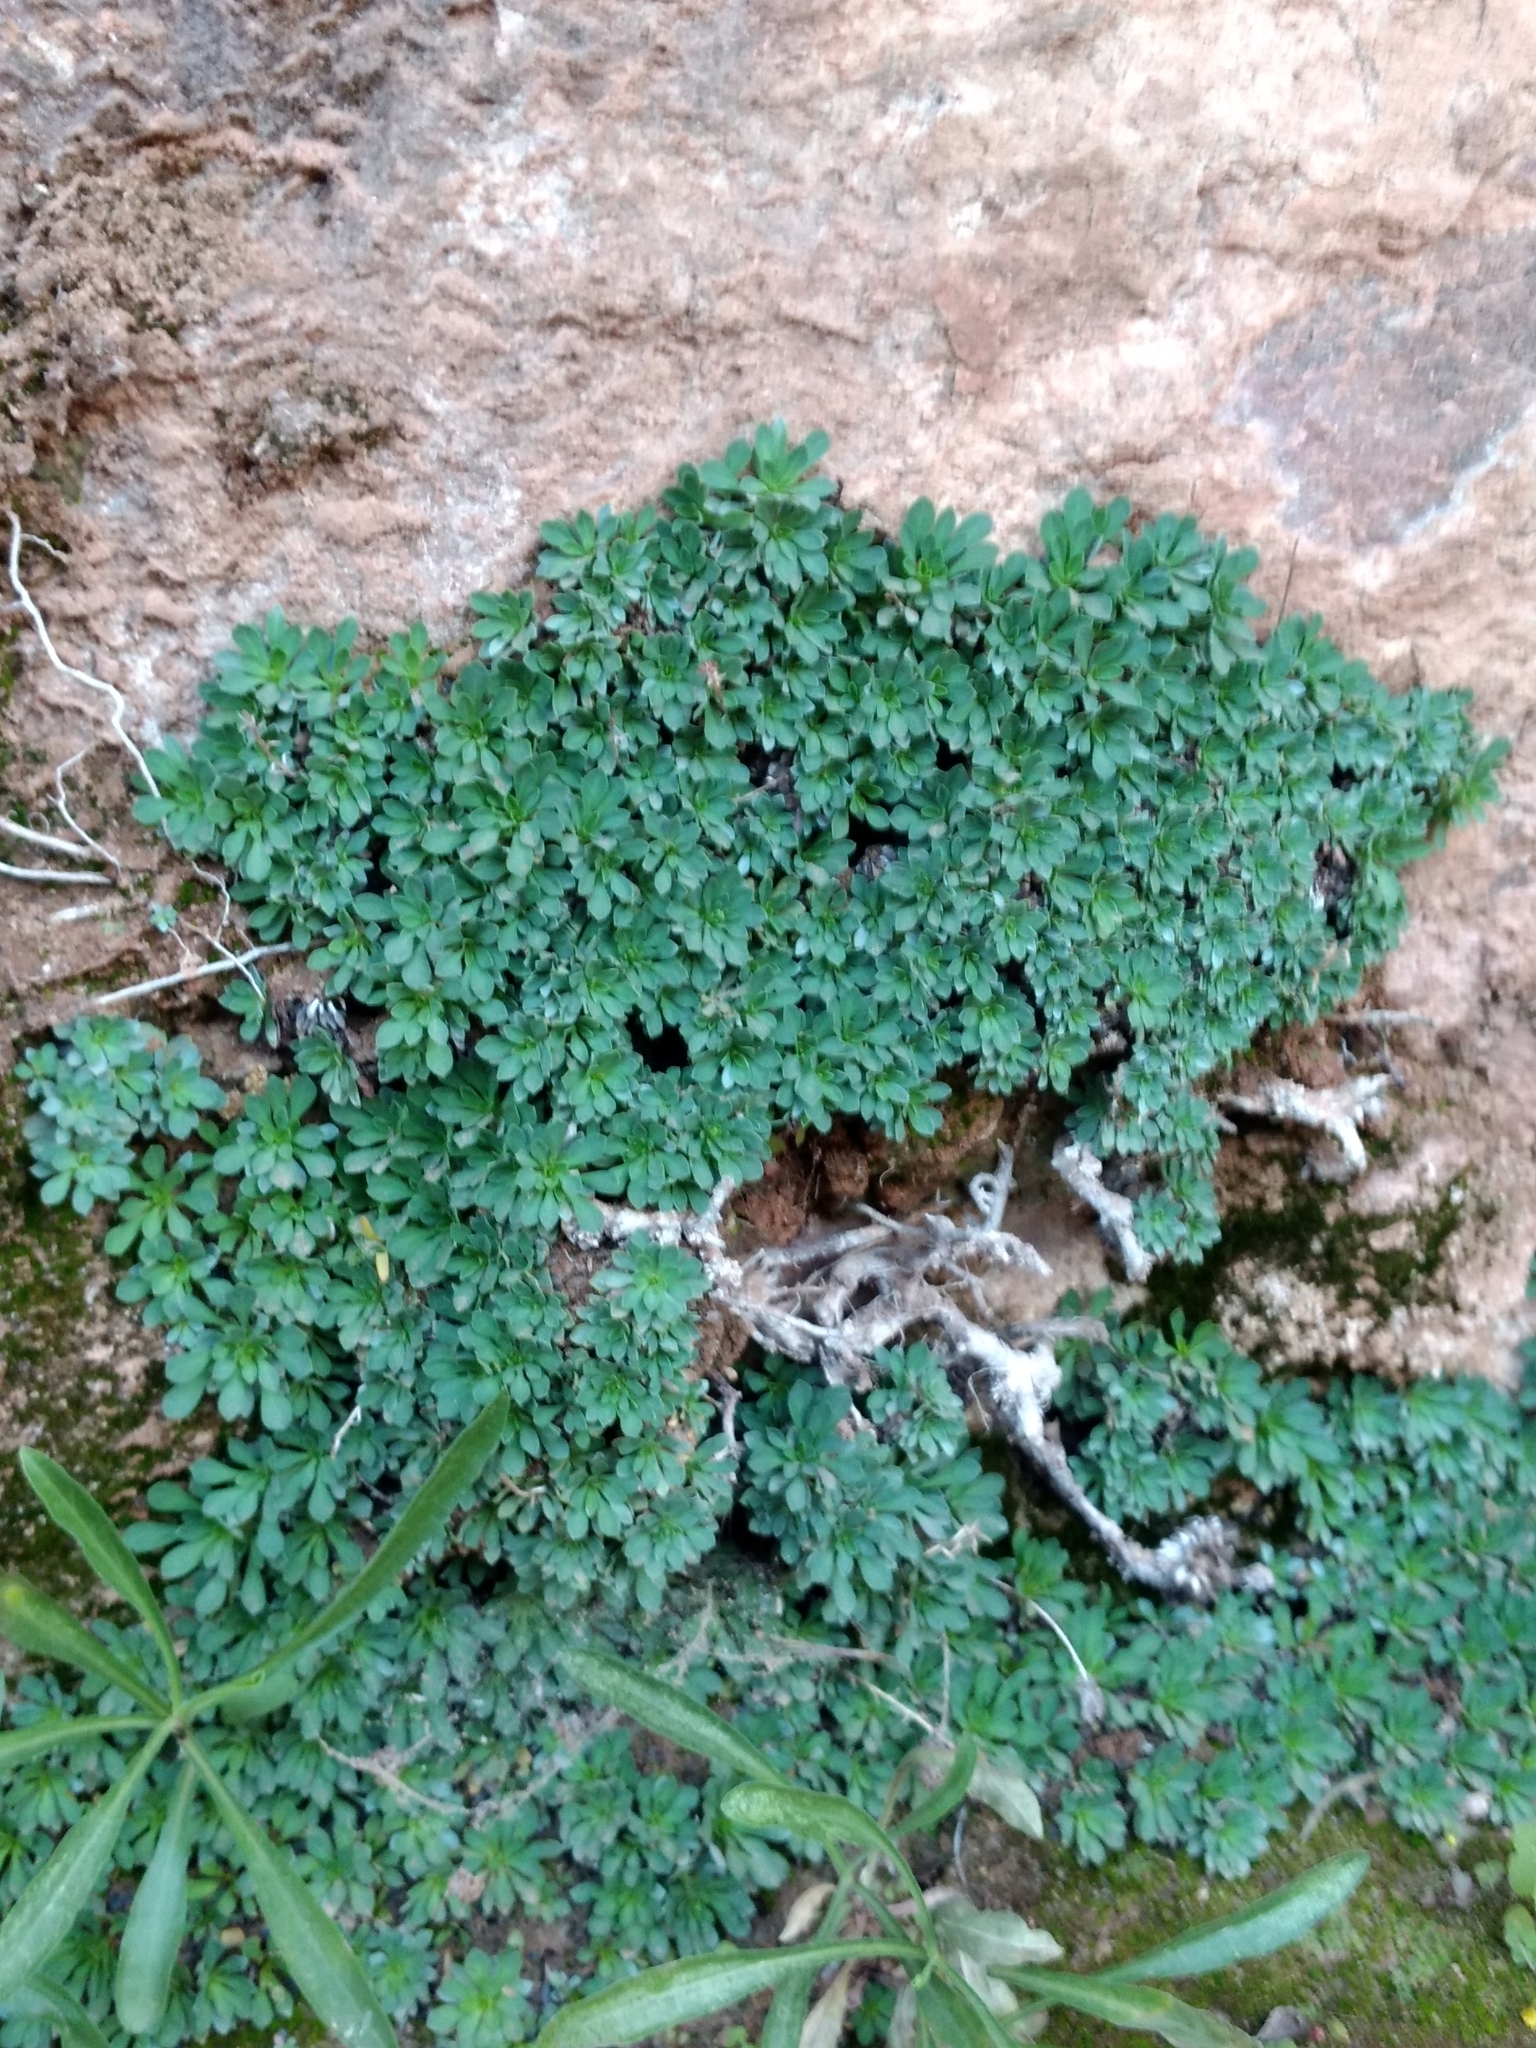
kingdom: Plantae
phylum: Tracheophyta
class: Magnoliopsida
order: Rosales
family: Rosaceae
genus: Petrophytum
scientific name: Petrophytum caespitosum
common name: Mat rockspirea
